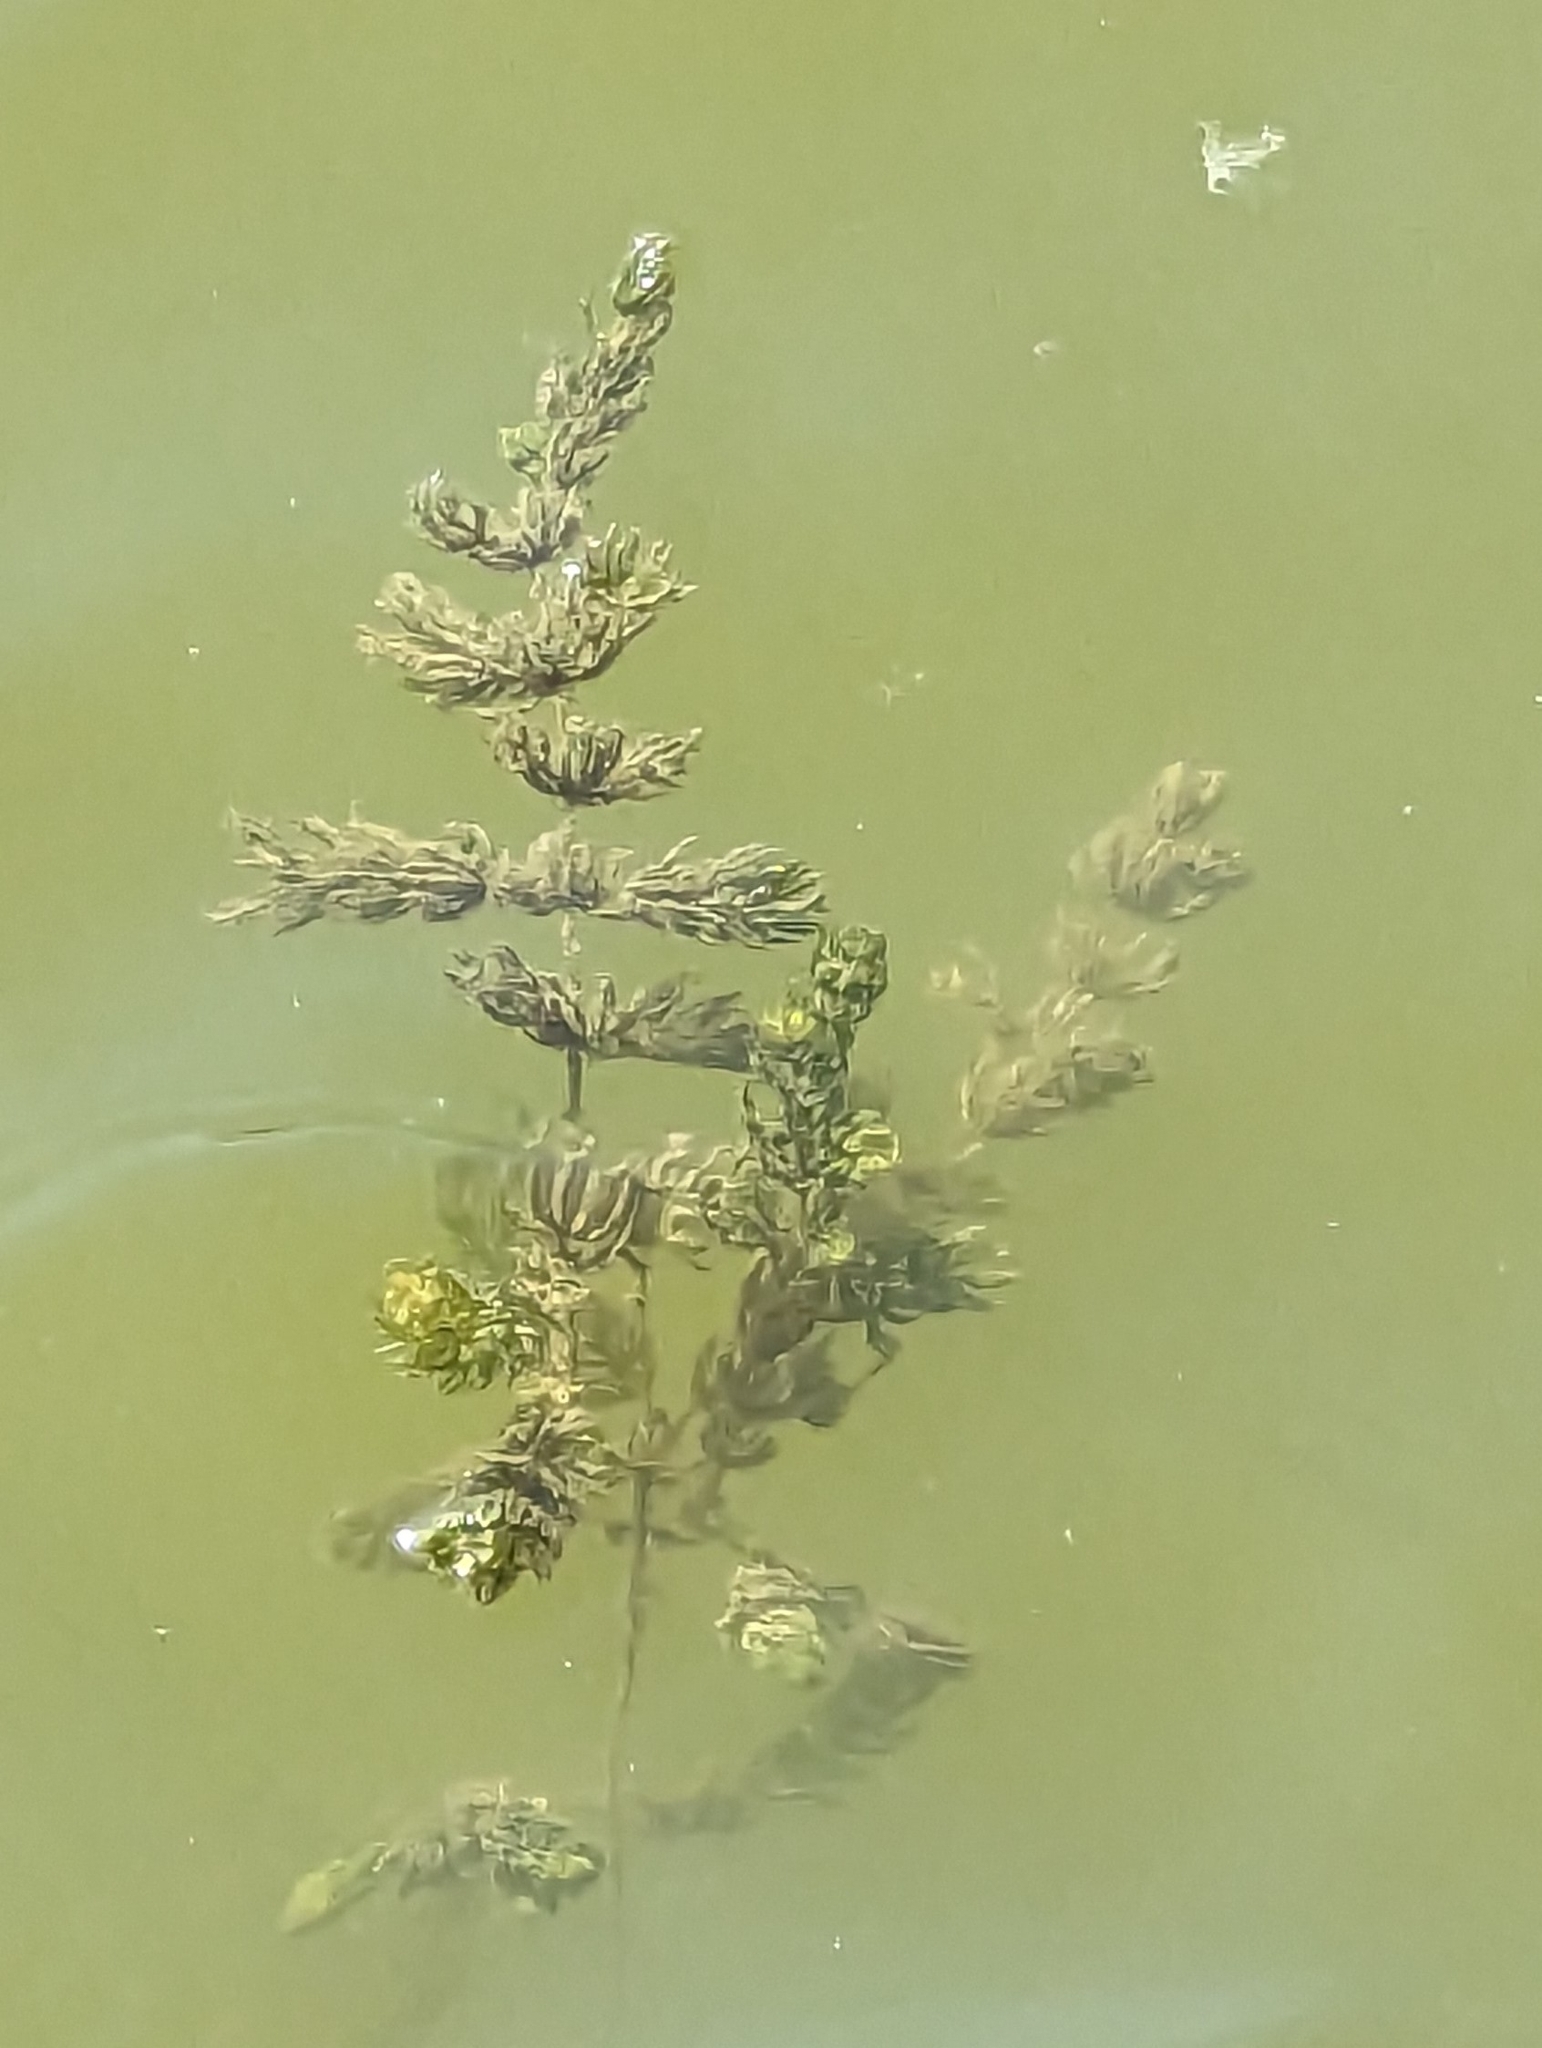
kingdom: Plantae
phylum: Tracheophyta
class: Magnoliopsida
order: Ceratophyllales
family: Ceratophyllaceae
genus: Ceratophyllum
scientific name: Ceratophyllum demersum
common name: Rigid hornwort
